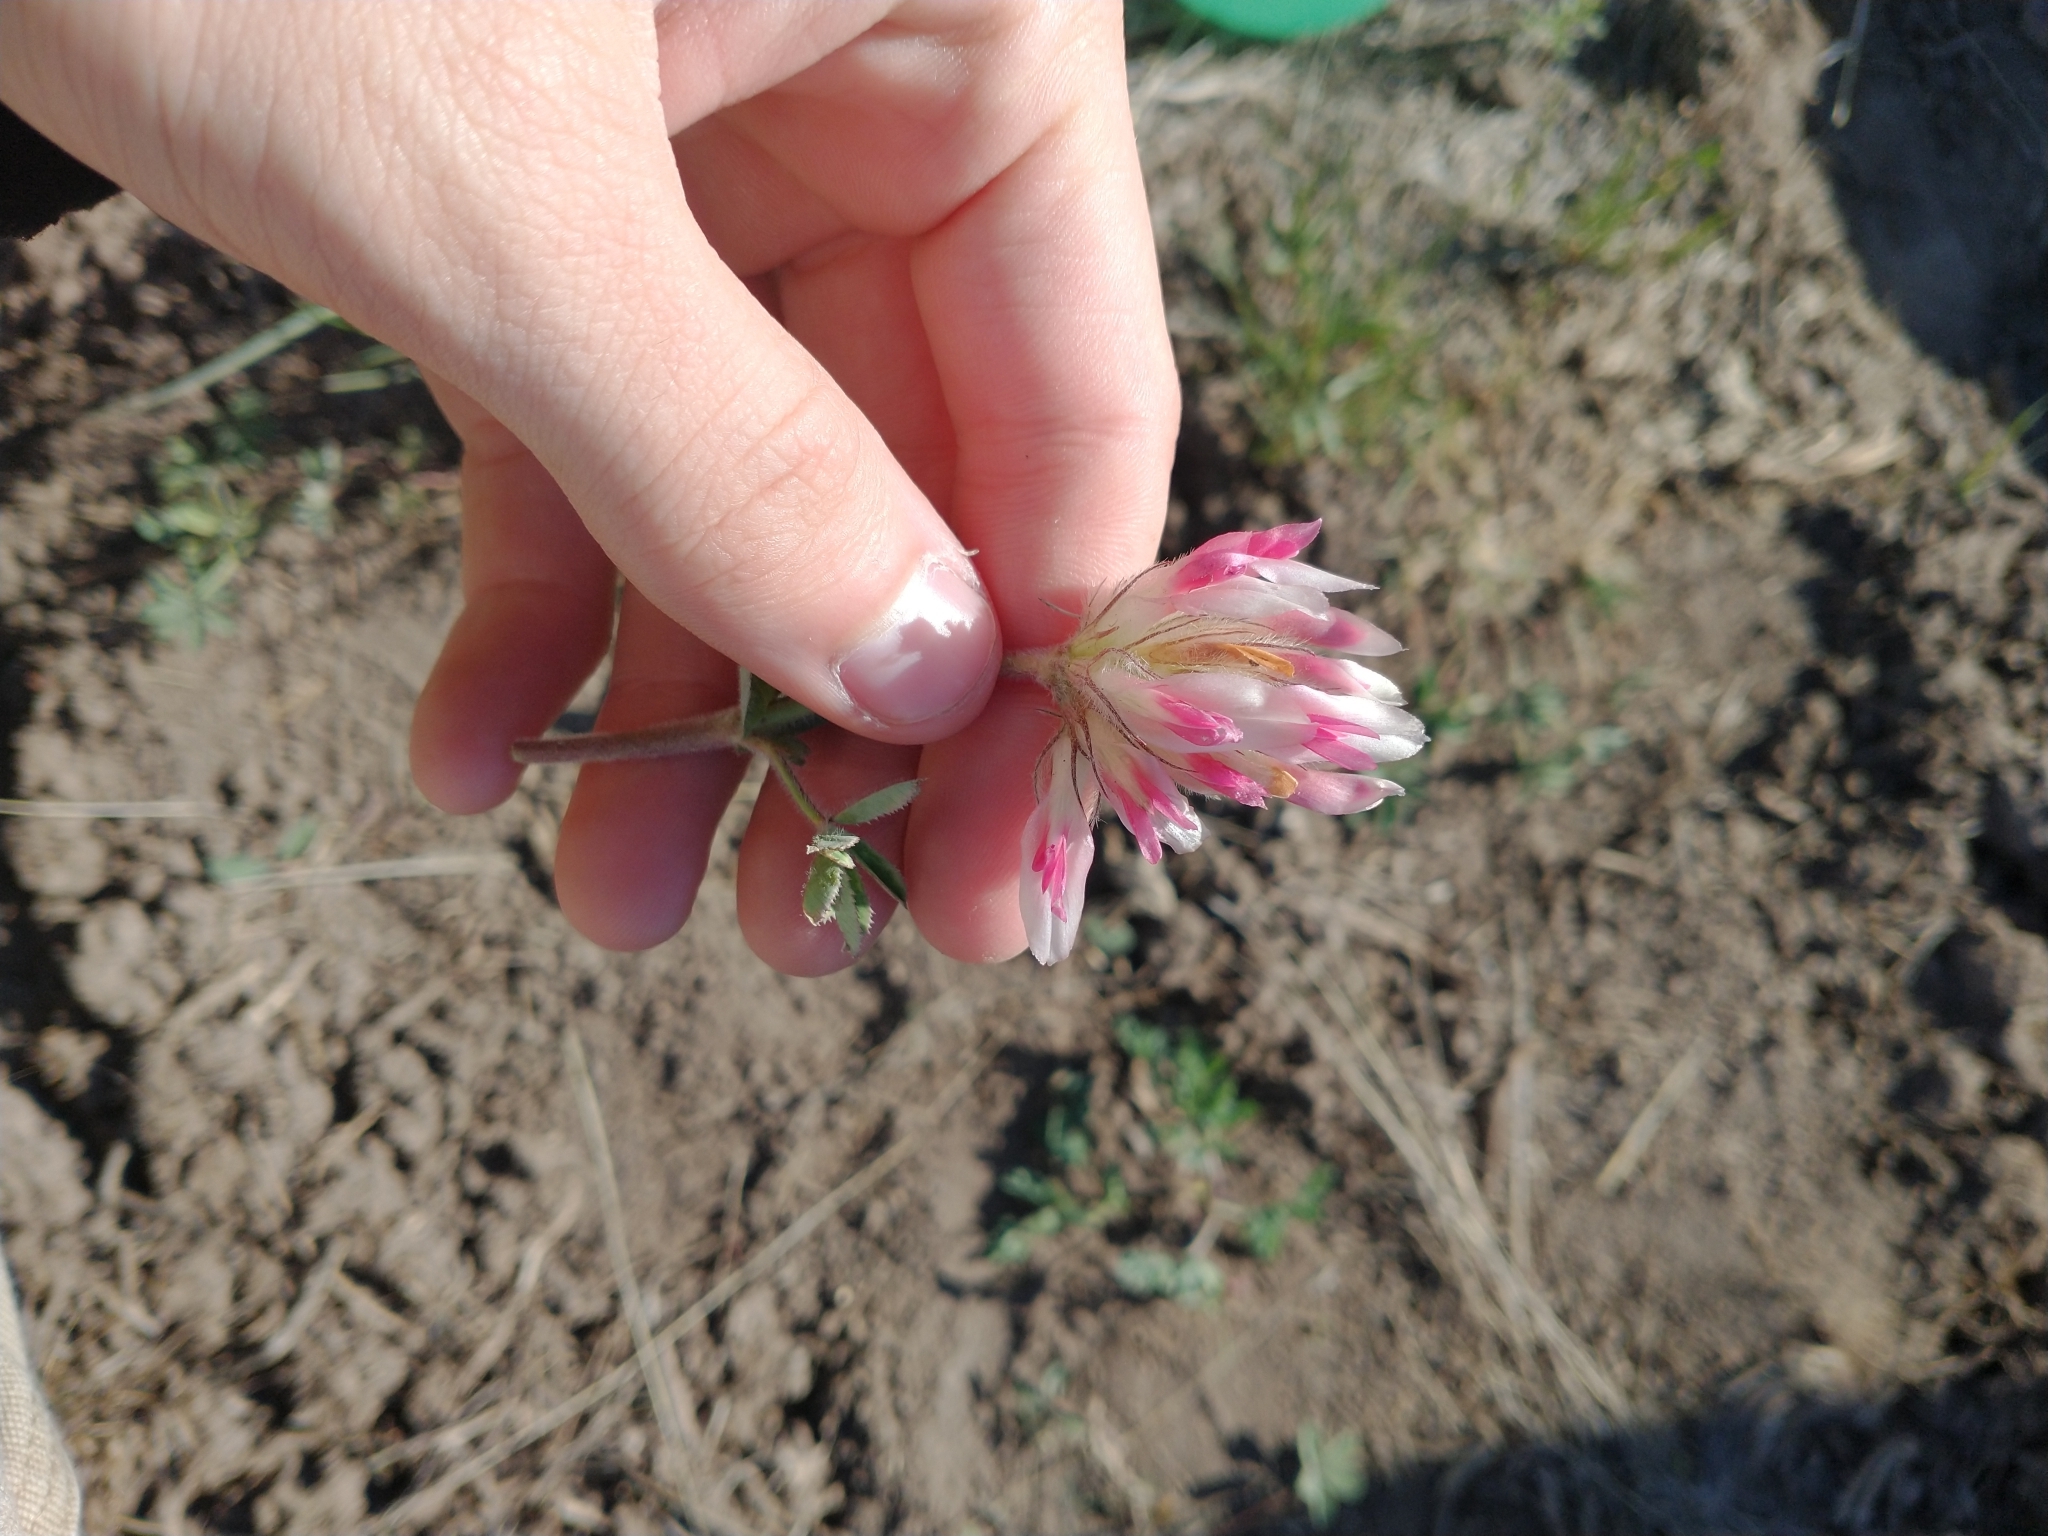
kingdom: Plantae
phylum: Tracheophyta
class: Magnoliopsida
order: Fabales
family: Fabaceae
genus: Trifolium
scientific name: Trifolium macrocephalum
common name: Large-head clover
